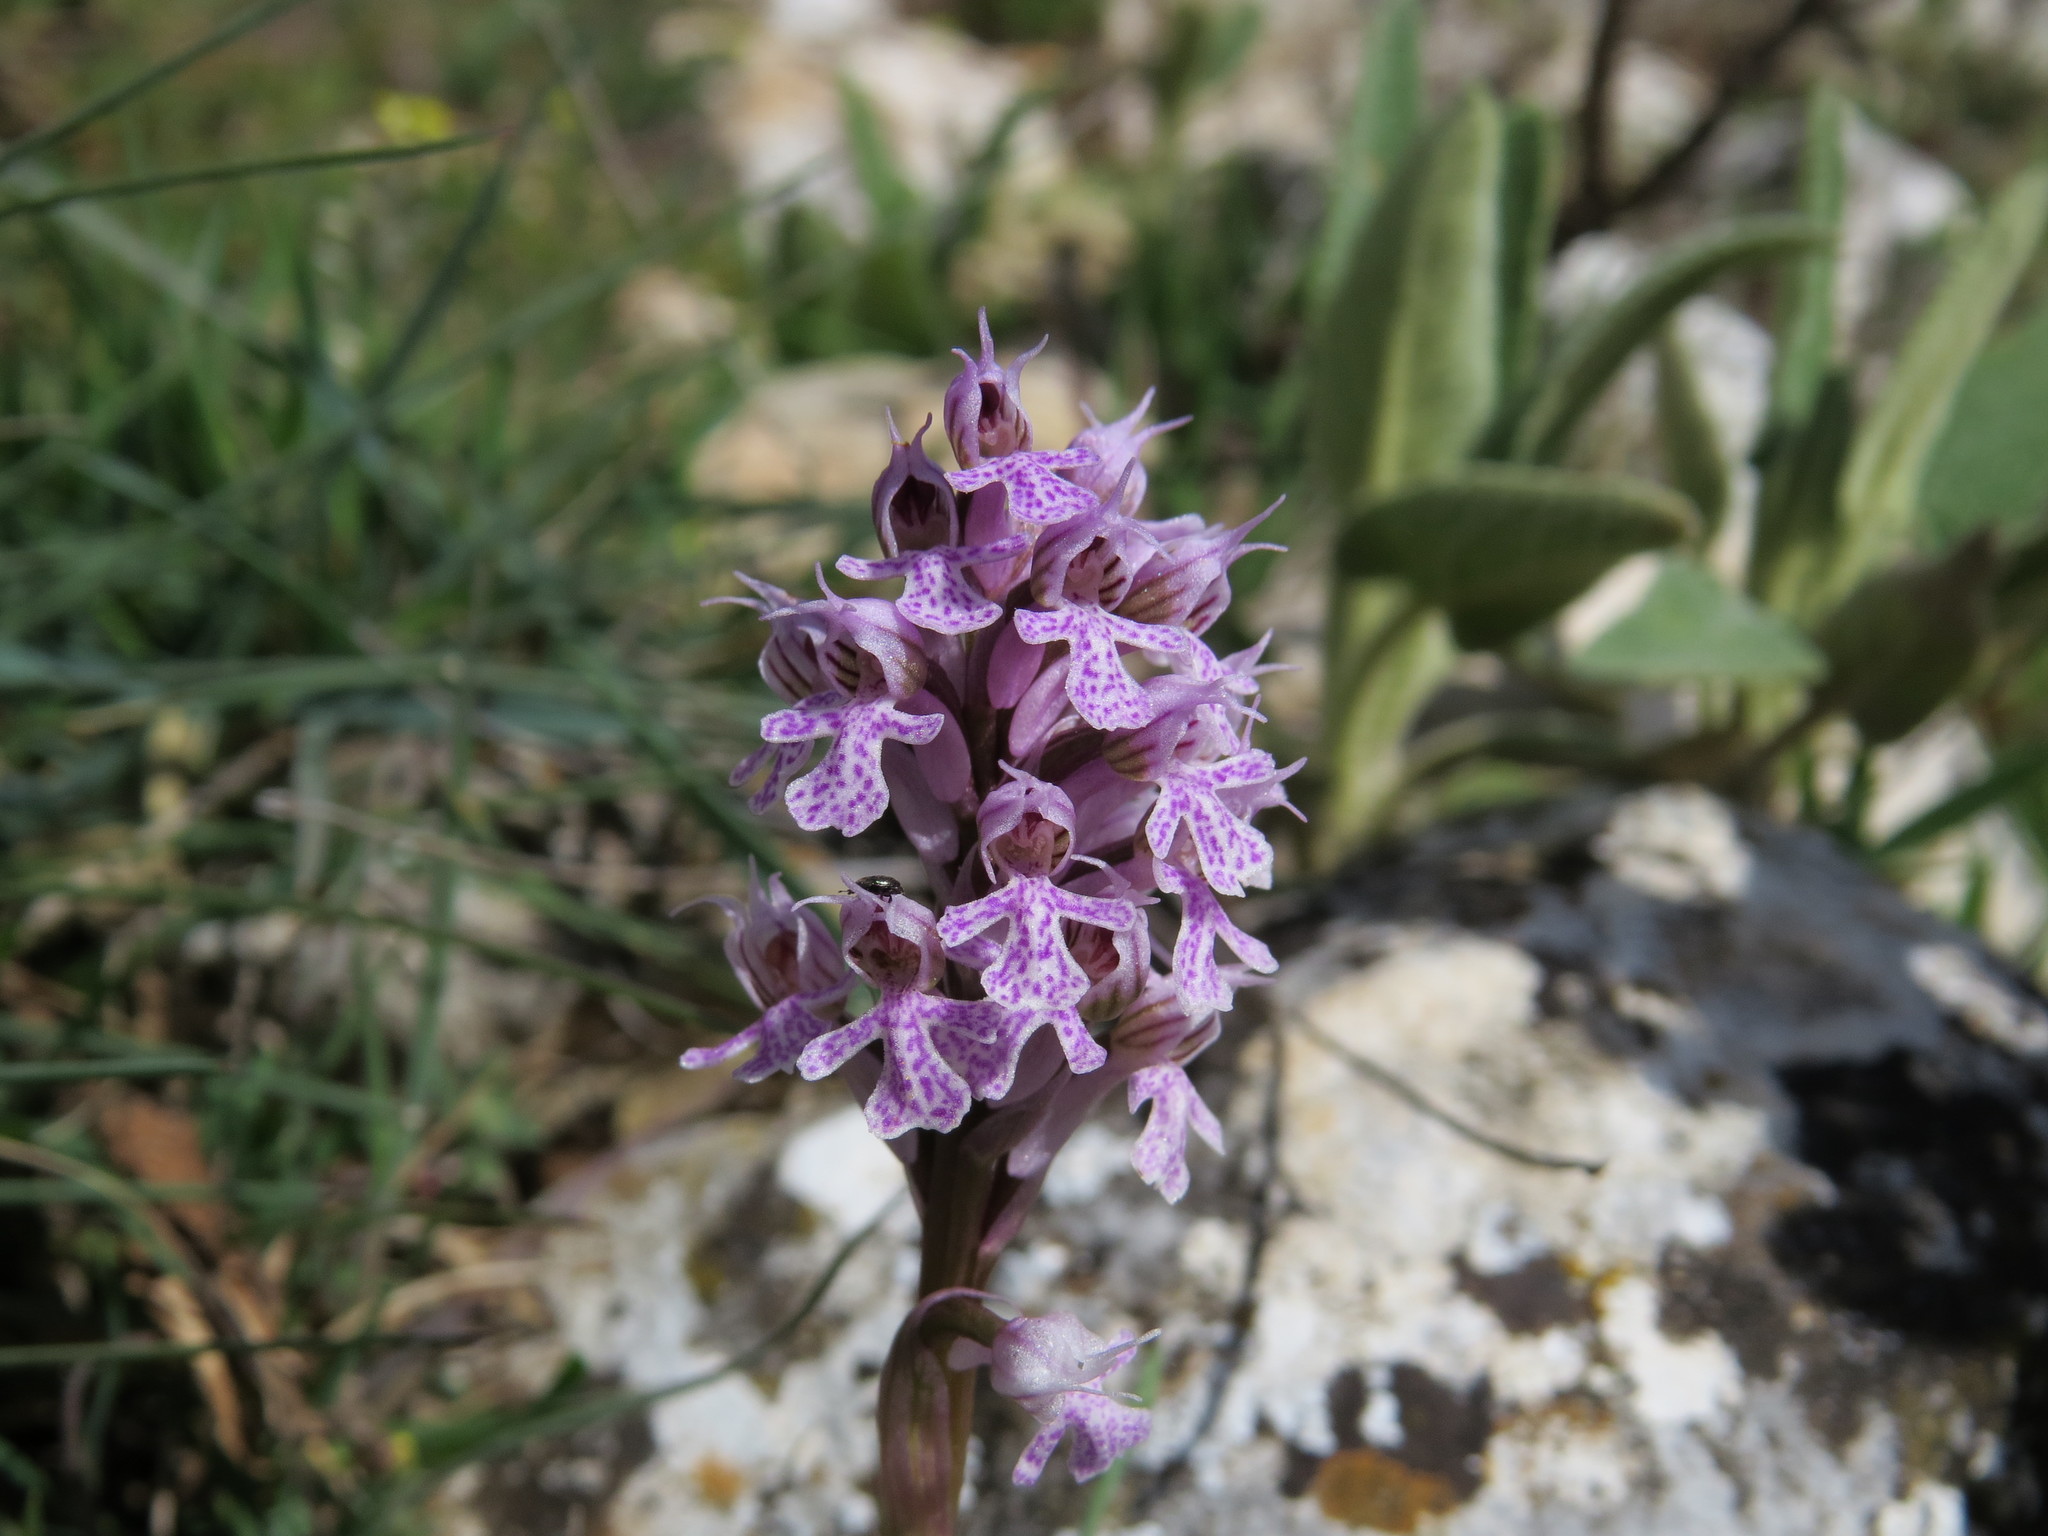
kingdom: Plantae
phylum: Tracheophyta
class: Liliopsida
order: Asparagales
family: Orchidaceae
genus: Neotinea
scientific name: Neotinea conica
